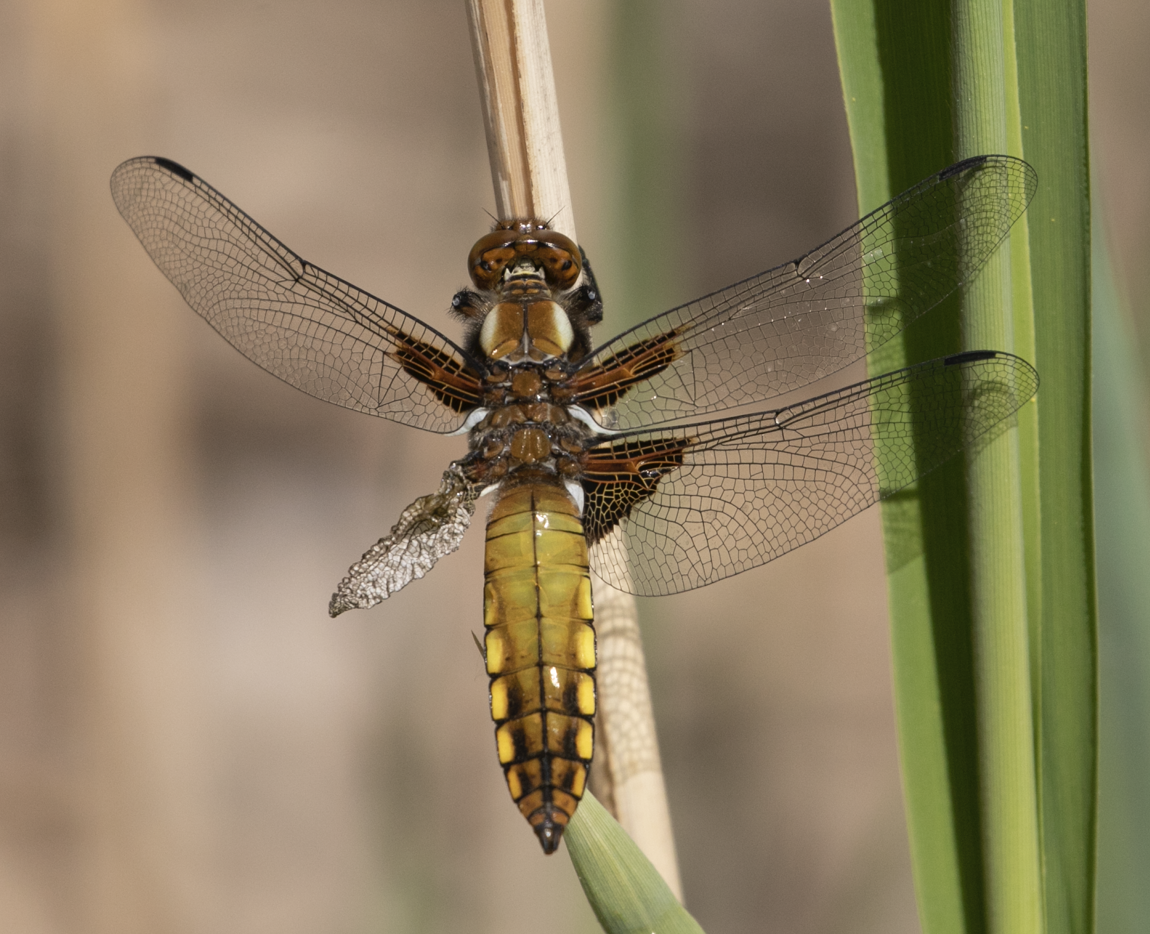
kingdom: Animalia
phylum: Arthropoda
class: Insecta
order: Odonata
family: Libellulidae
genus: Libellula
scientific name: Libellula depressa
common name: Broad-bodied chaser
